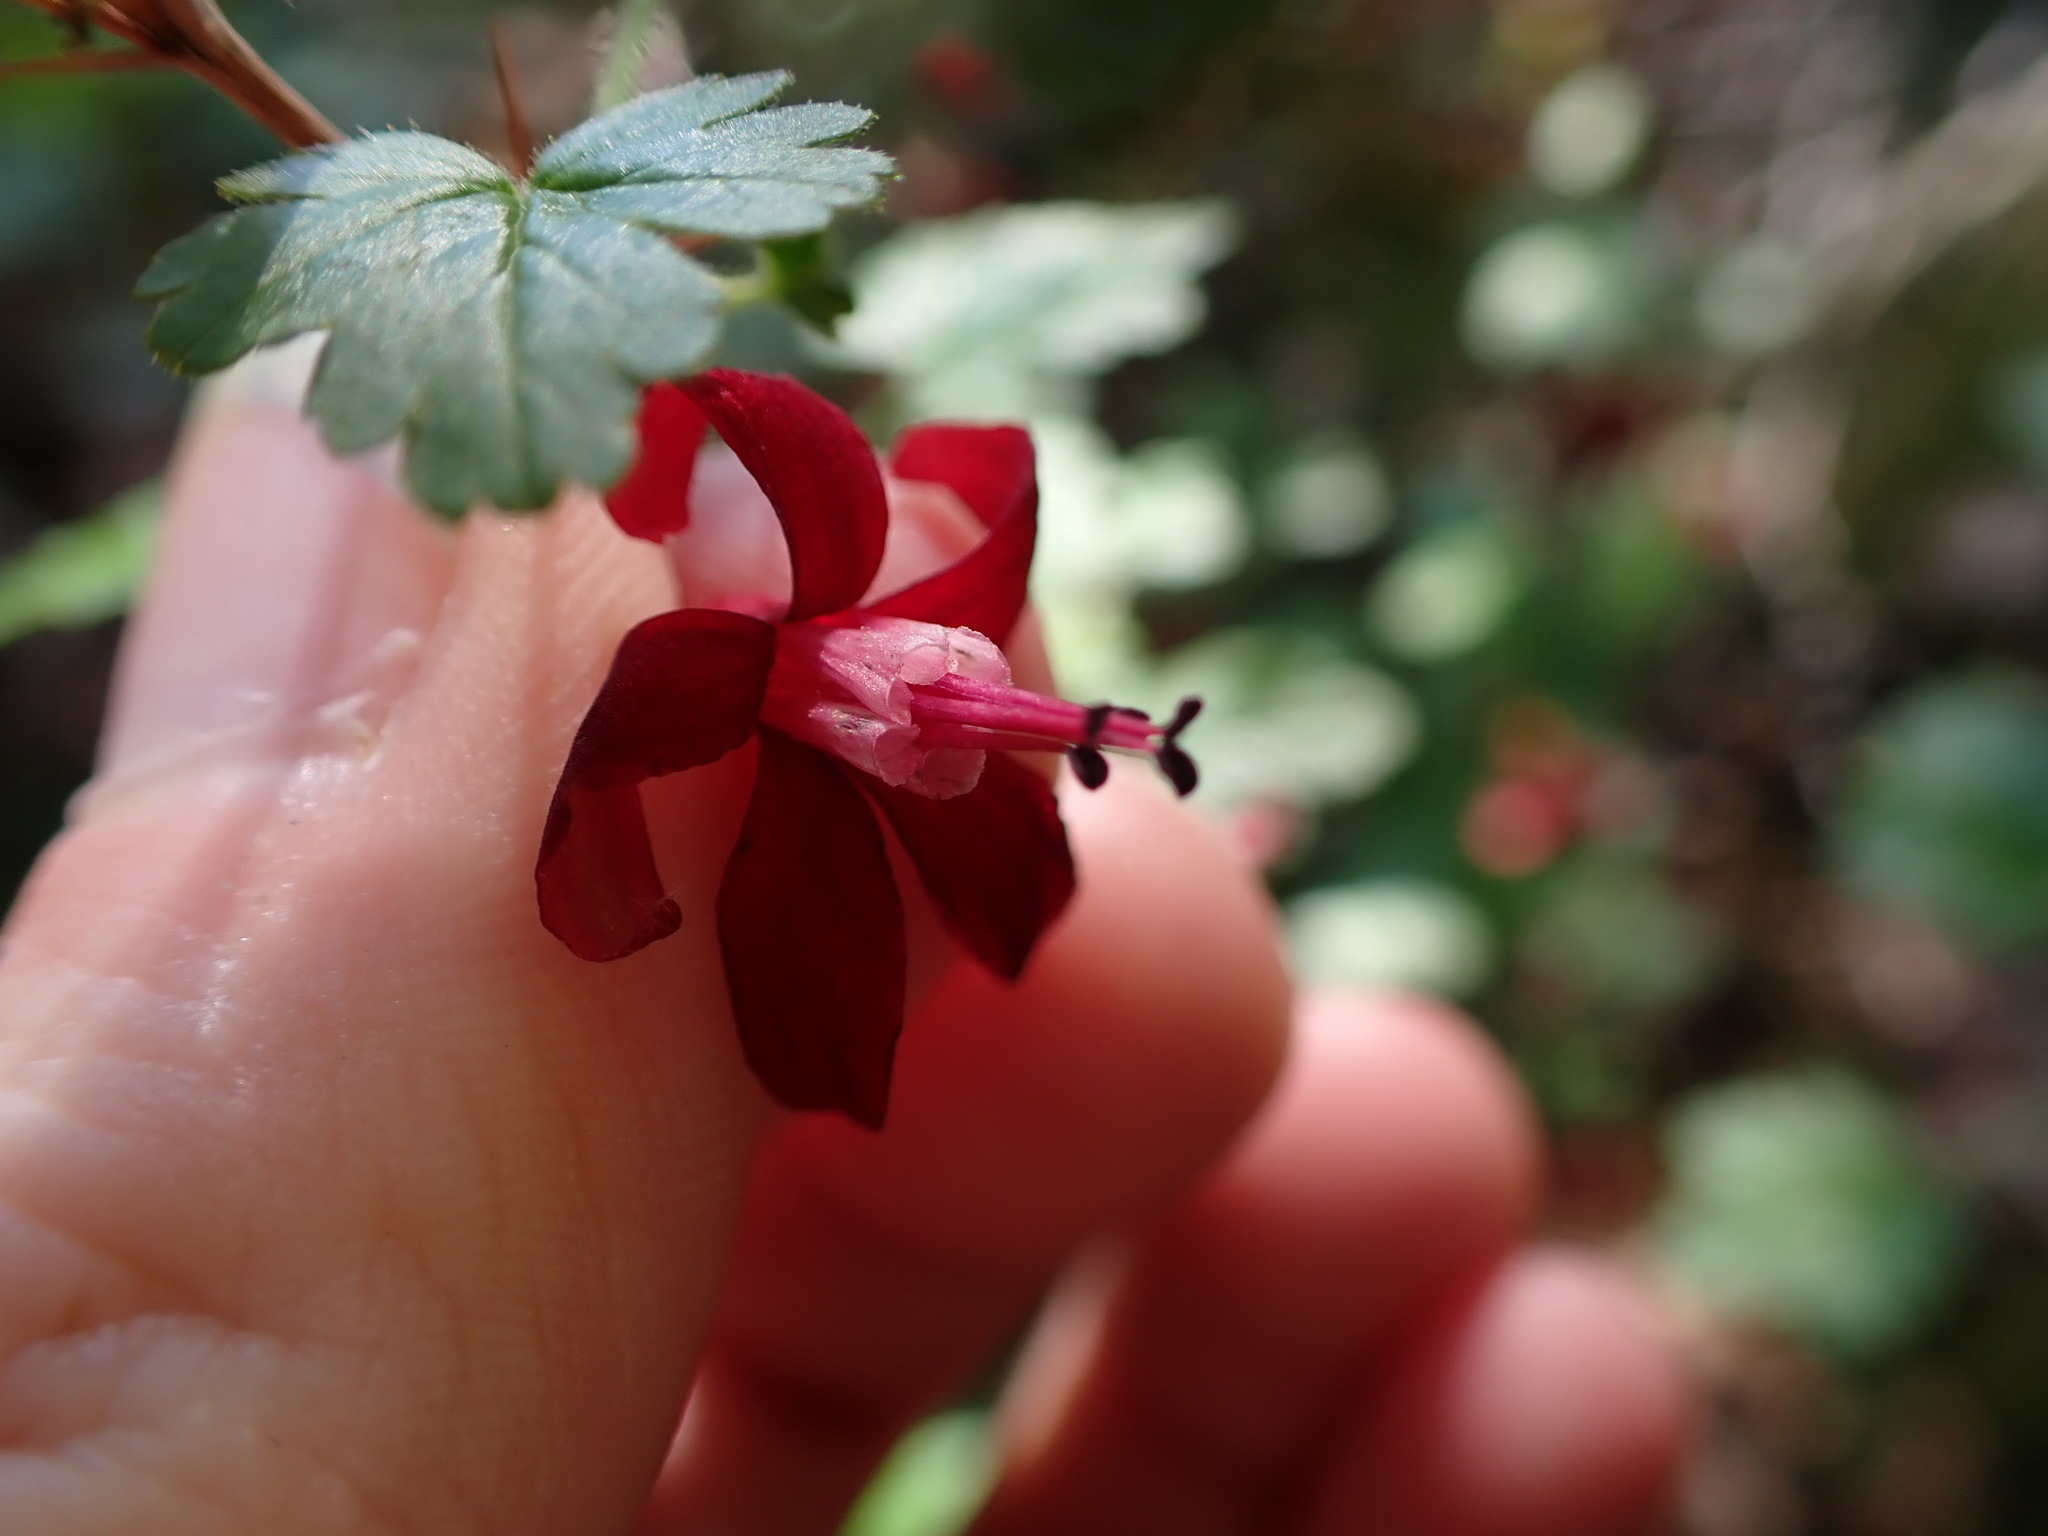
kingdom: Plantae
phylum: Tracheophyta
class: Magnoliopsida
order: Saxifragales
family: Grossulariaceae
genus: Ribes
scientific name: Ribes lobbii
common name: Gummy gooseberry
